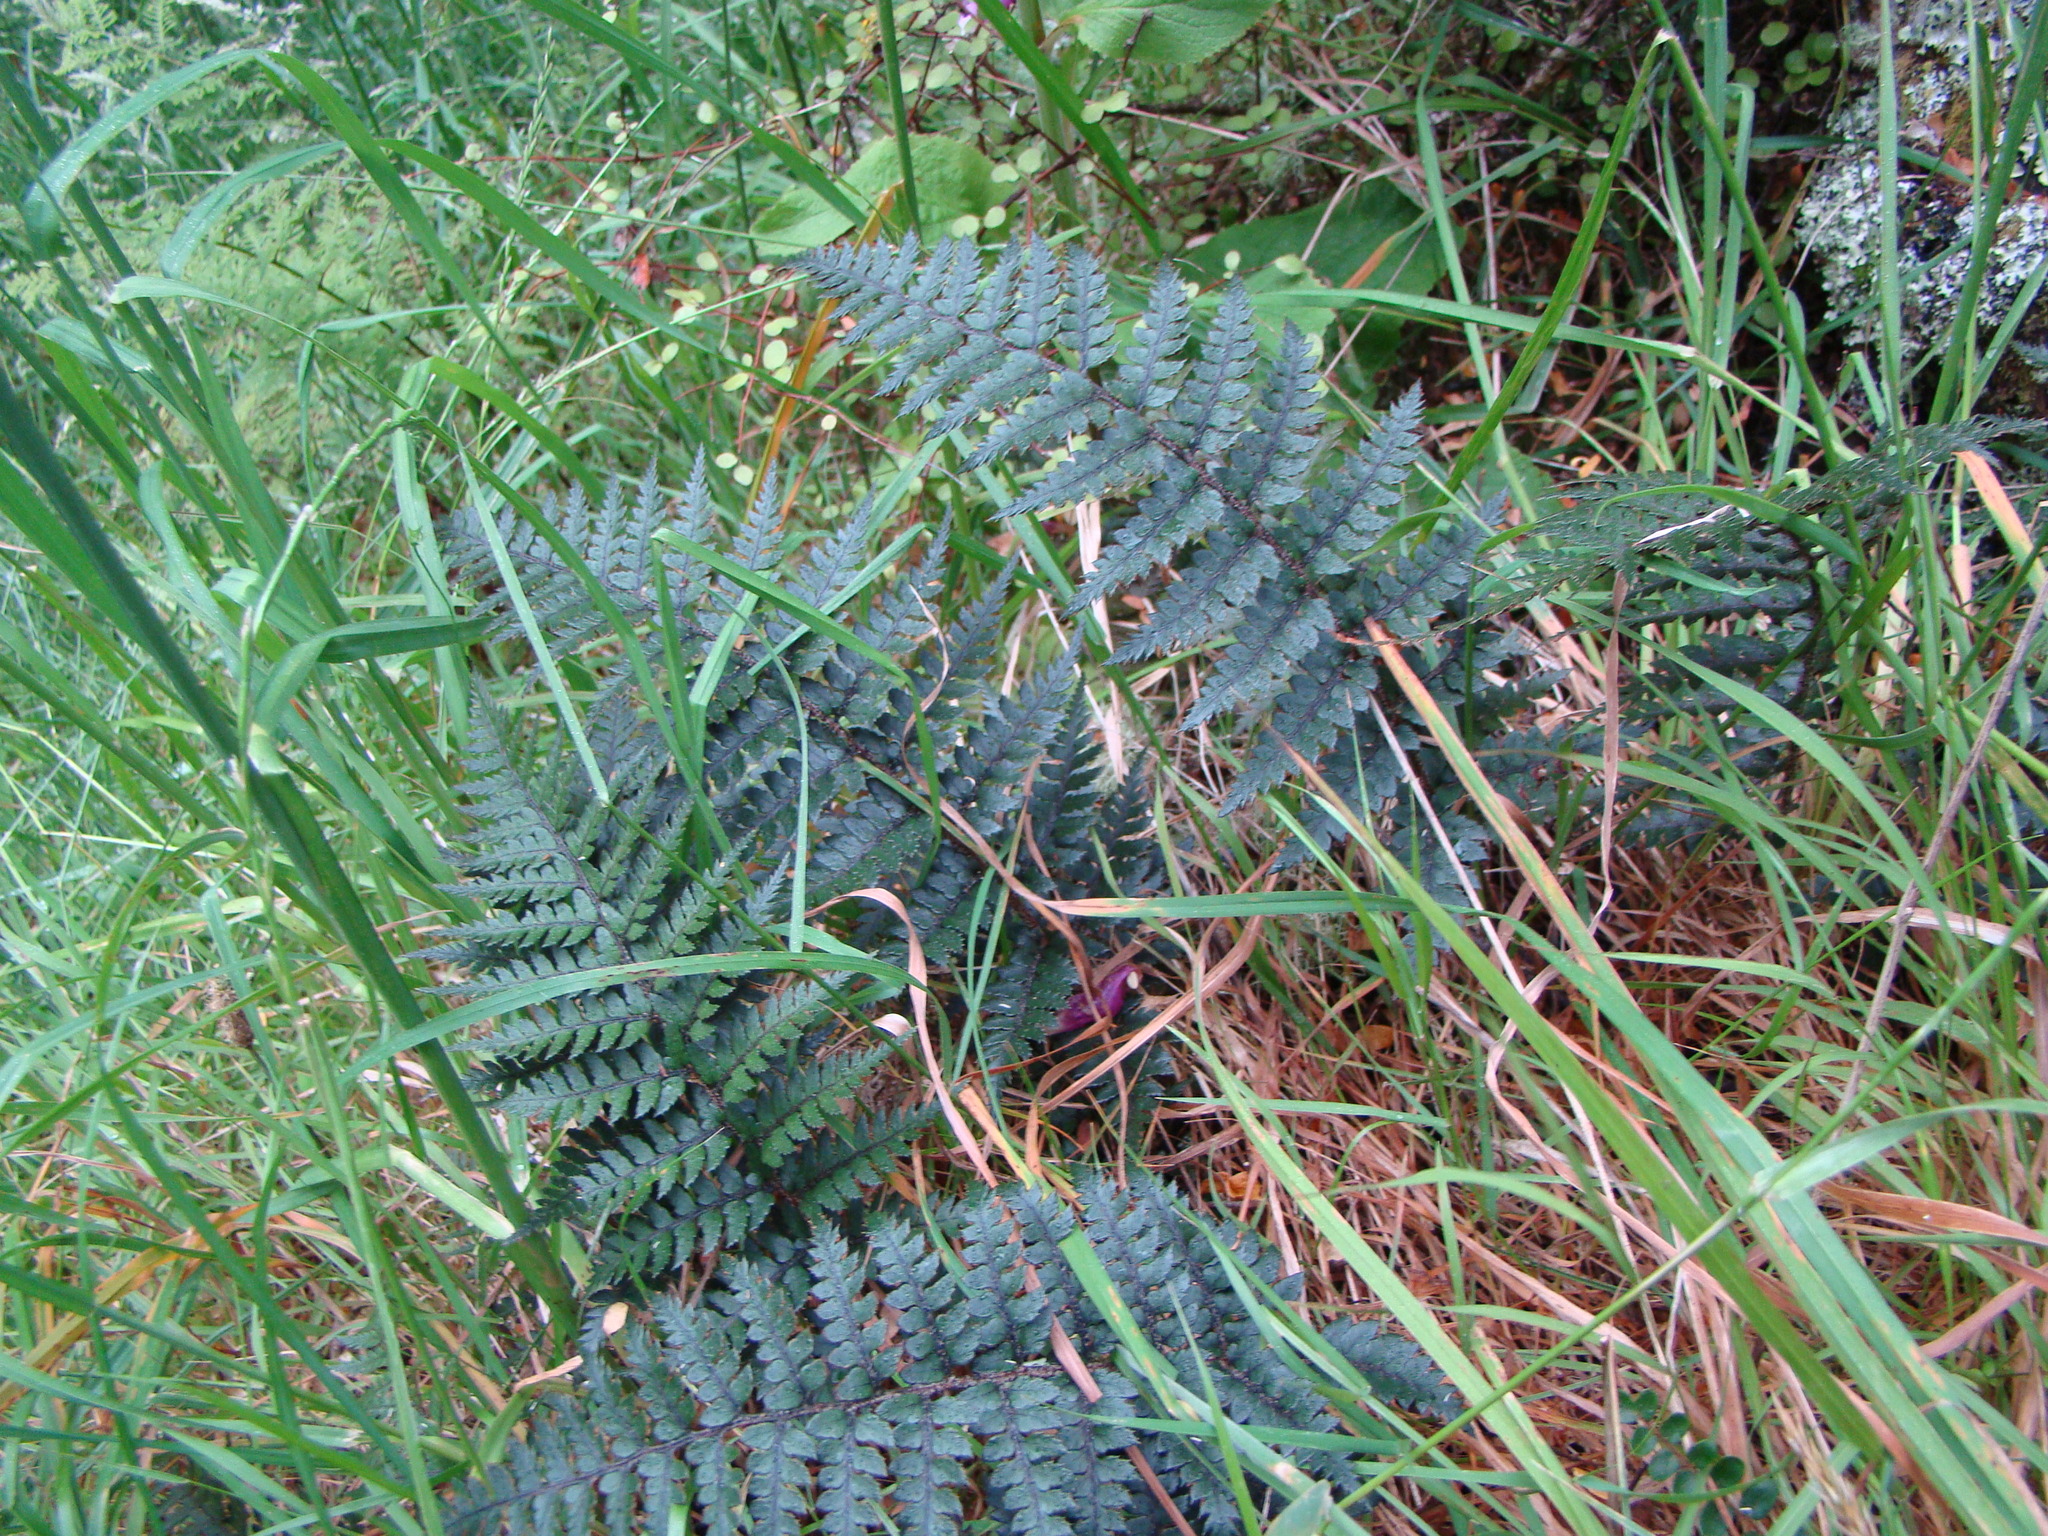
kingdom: Plantae
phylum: Tracheophyta
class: Polypodiopsida
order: Polypodiales
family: Dryopteridaceae
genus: Polystichum
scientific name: Polystichum neozelandicum
